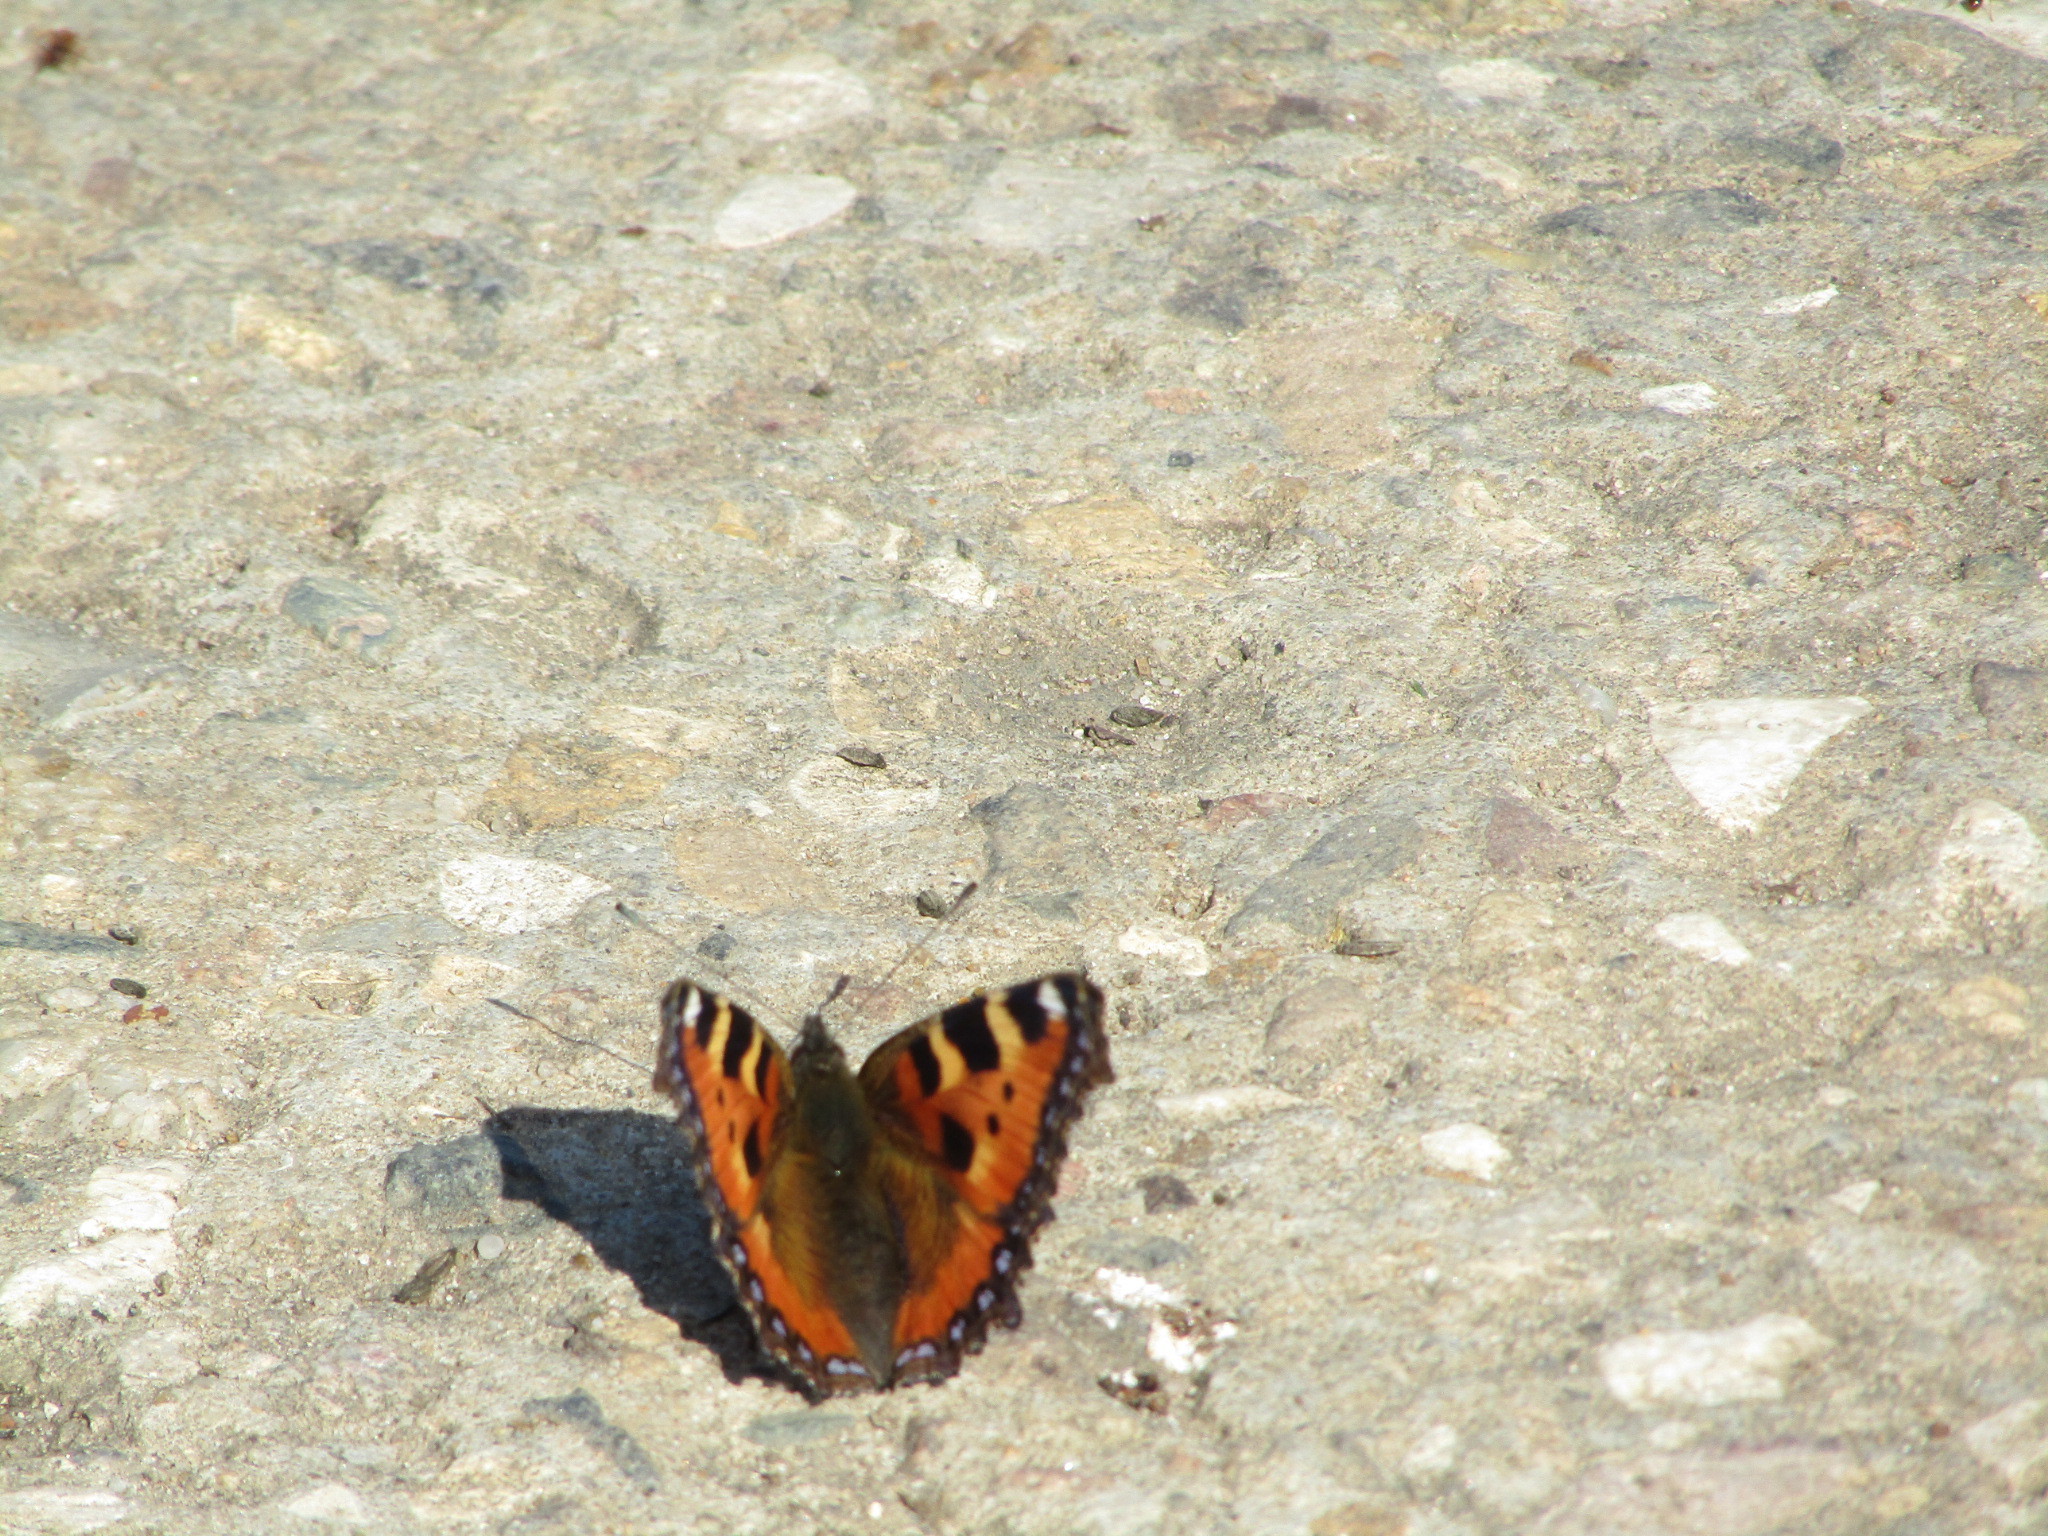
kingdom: Animalia
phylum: Arthropoda
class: Insecta
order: Lepidoptera
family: Nymphalidae
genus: Aglais
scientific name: Aglais urticae
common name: Small tortoiseshell
